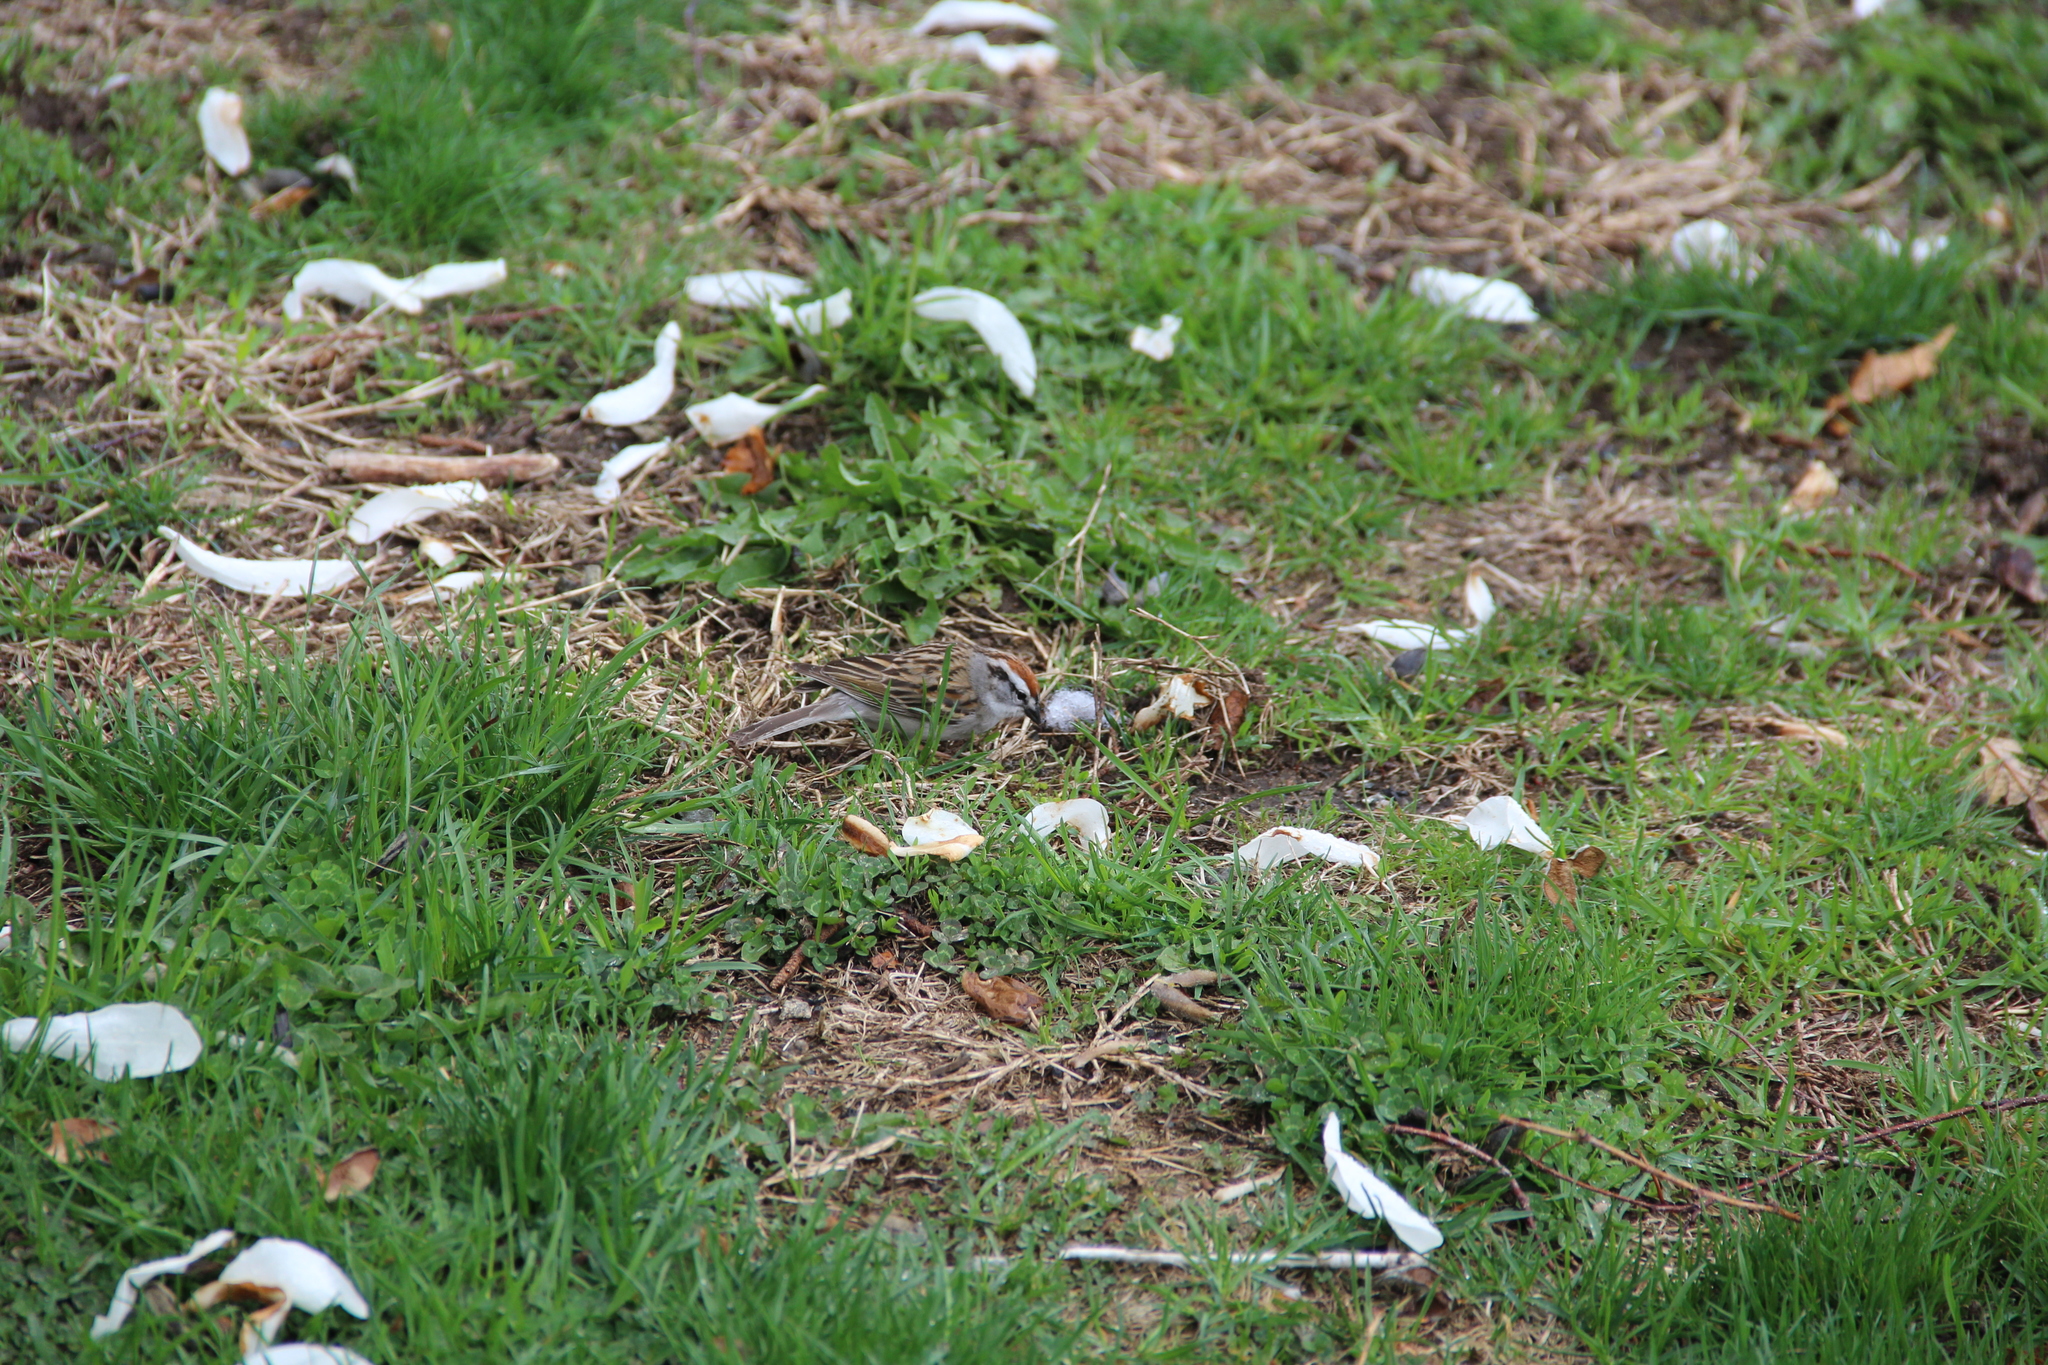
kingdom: Animalia
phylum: Chordata
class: Aves
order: Passeriformes
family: Passerellidae
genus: Spizella
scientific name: Spizella passerina
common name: Chipping sparrow
